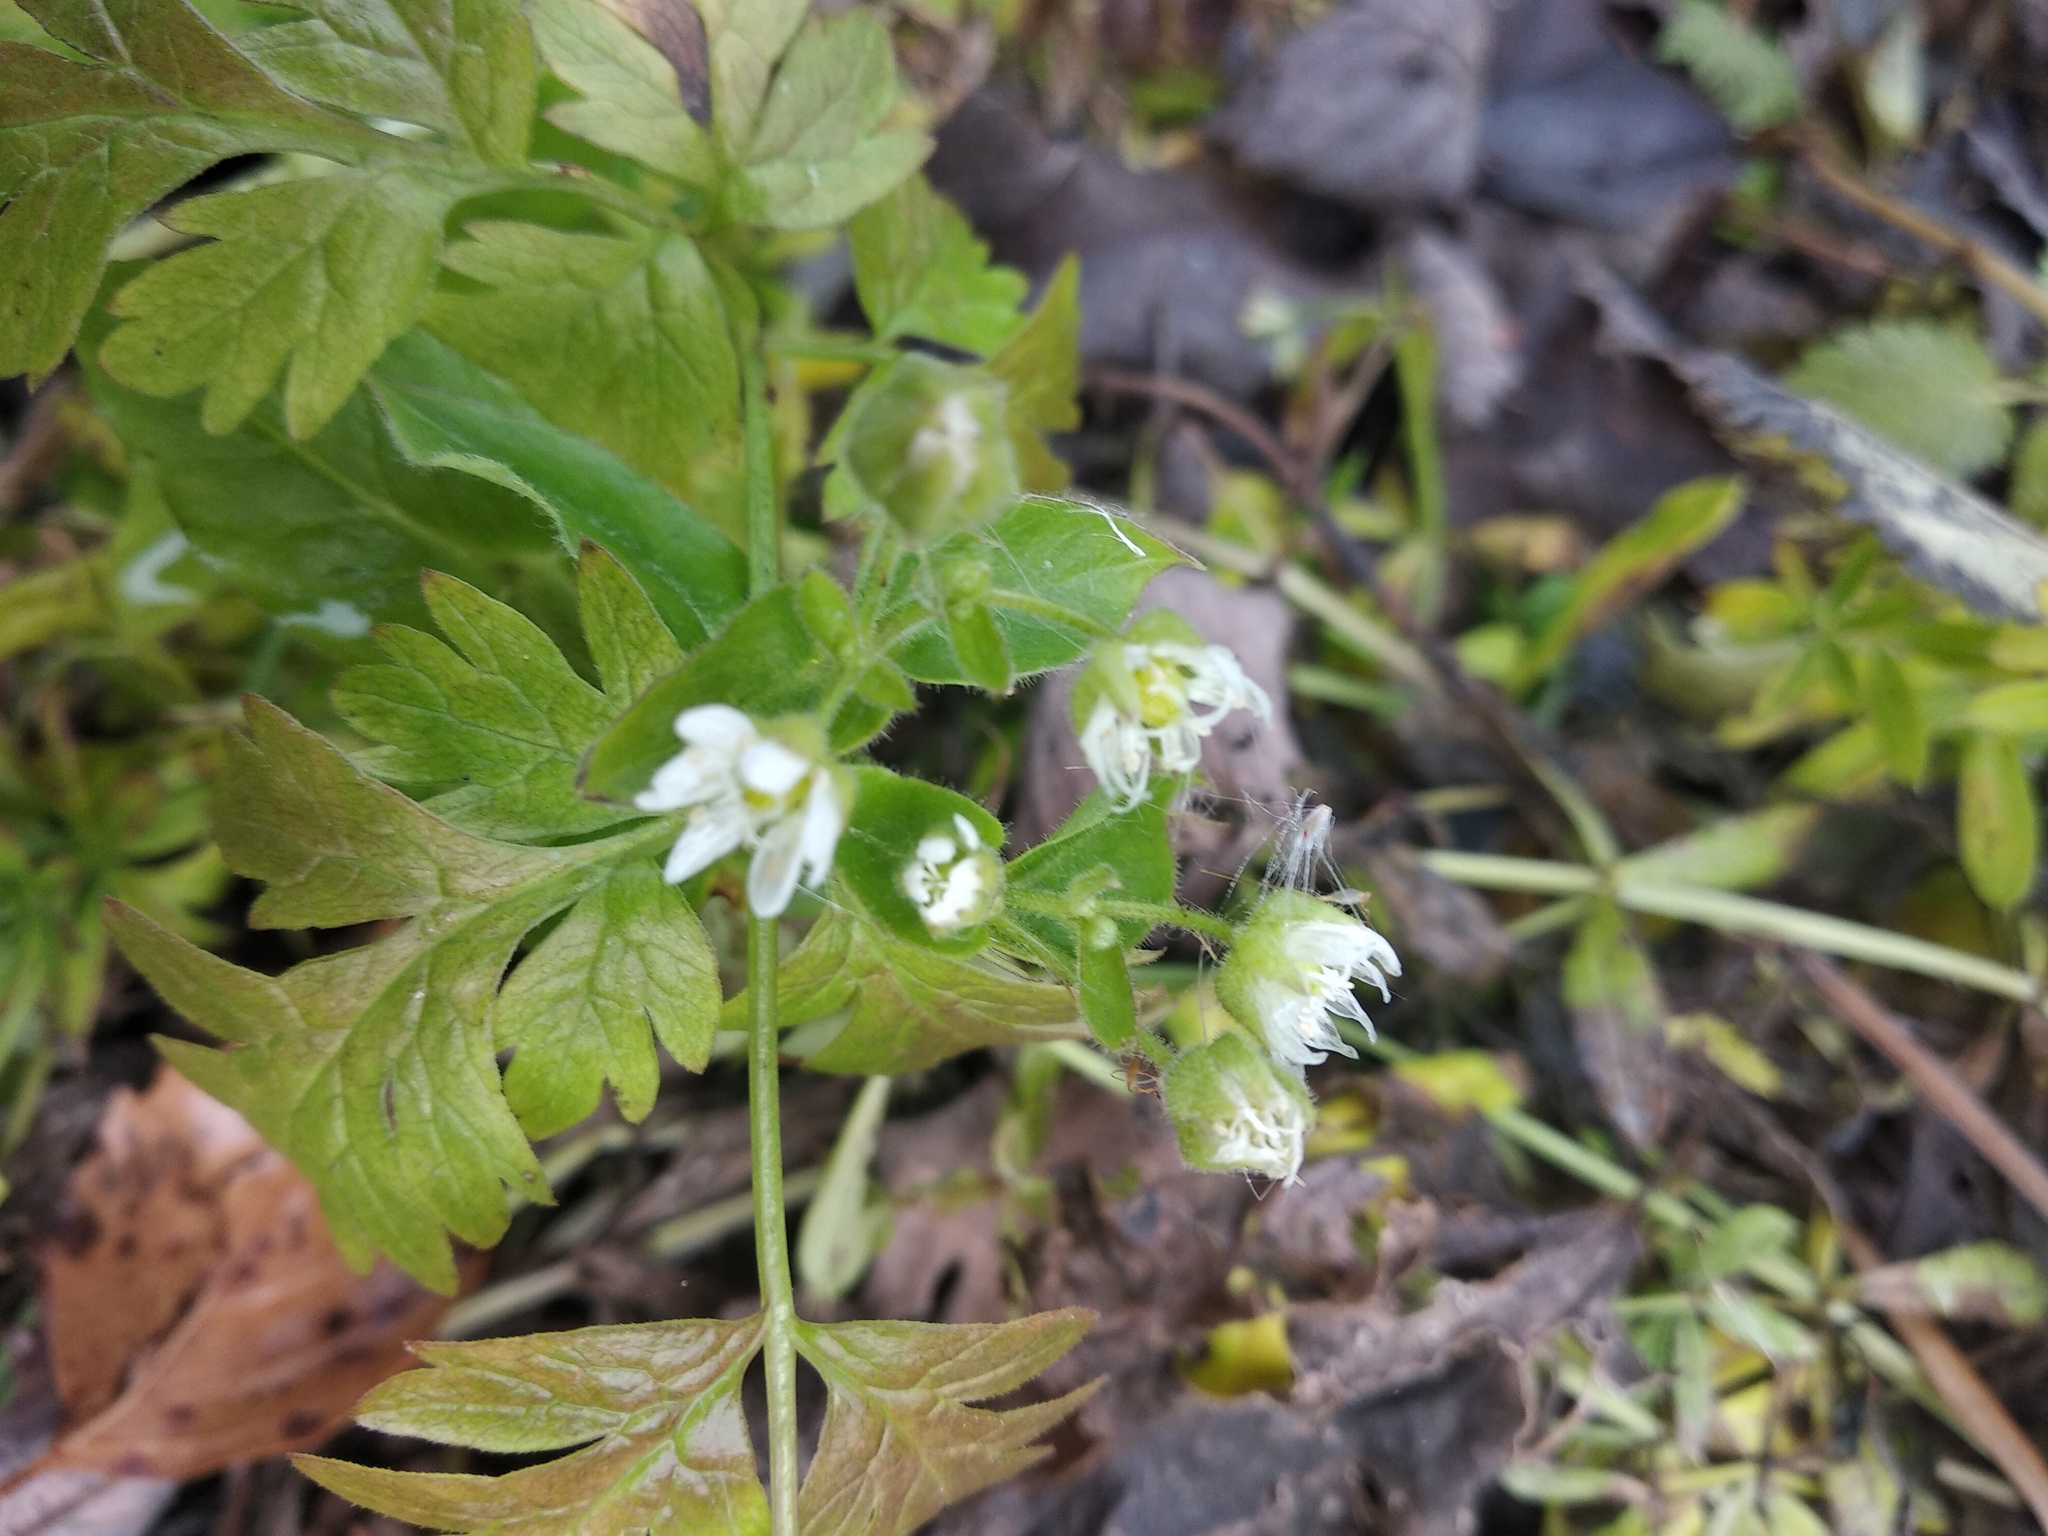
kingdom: Plantae
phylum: Tracheophyta
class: Magnoliopsida
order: Caryophyllales
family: Caryophyllaceae
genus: Stellaria
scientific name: Stellaria aquatica
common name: Water chickweed
